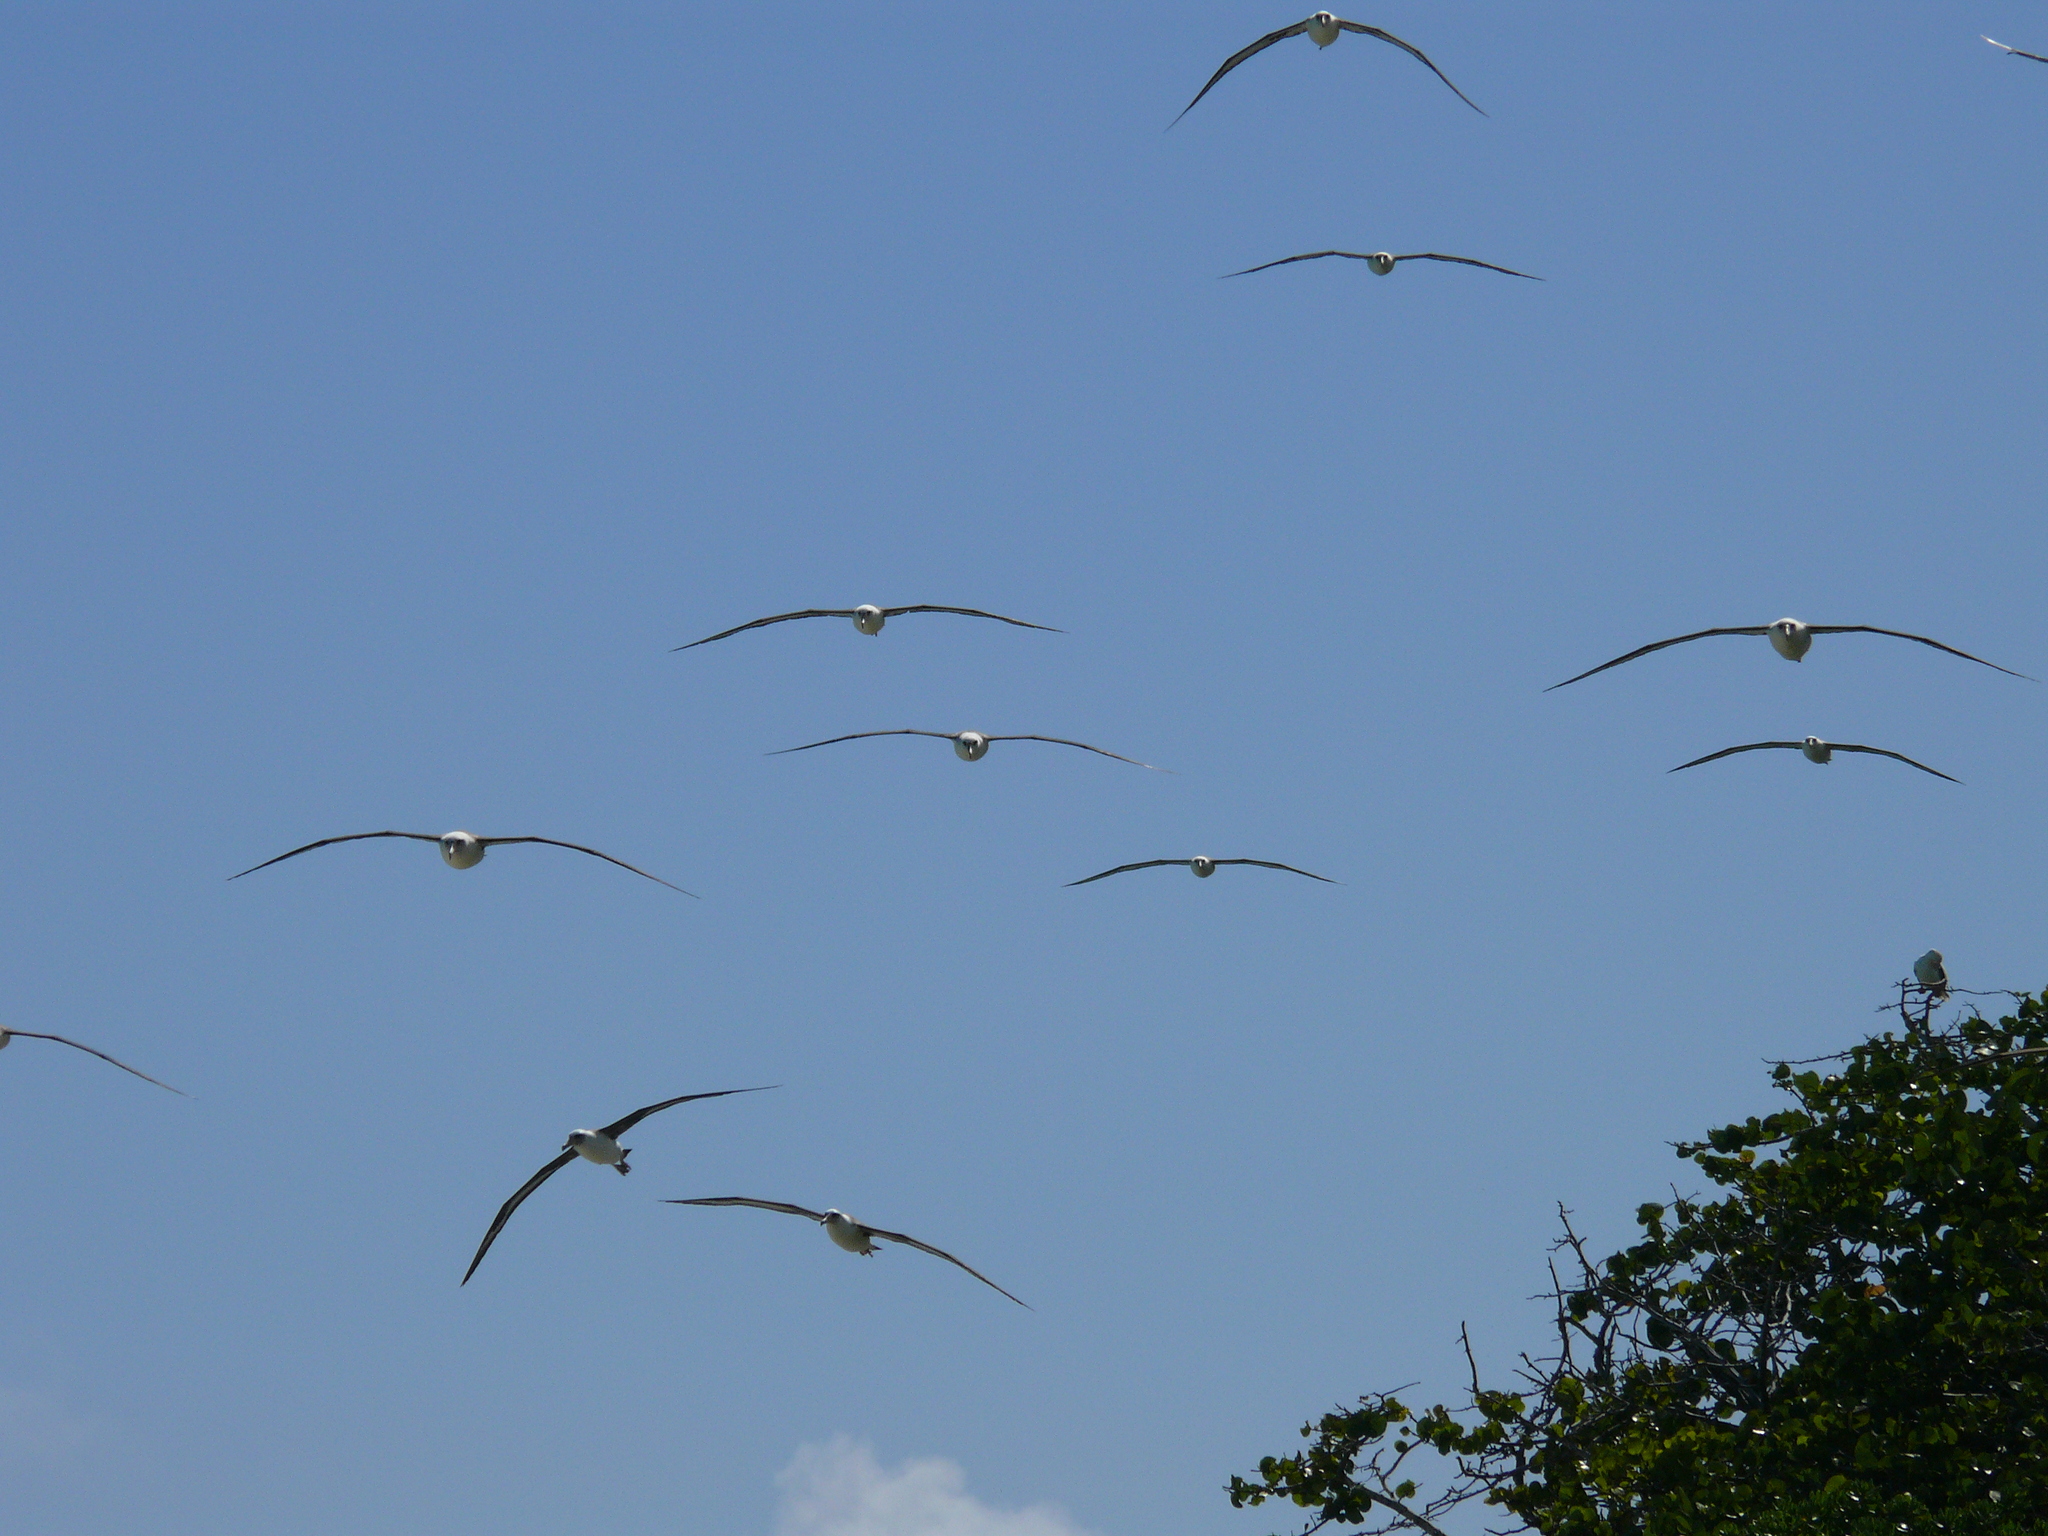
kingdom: Animalia
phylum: Chordata
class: Aves
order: Procellariiformes
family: Diomedeidae
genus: Phoebastria
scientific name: Phoebastria immutabilis
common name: Laysan albatross
